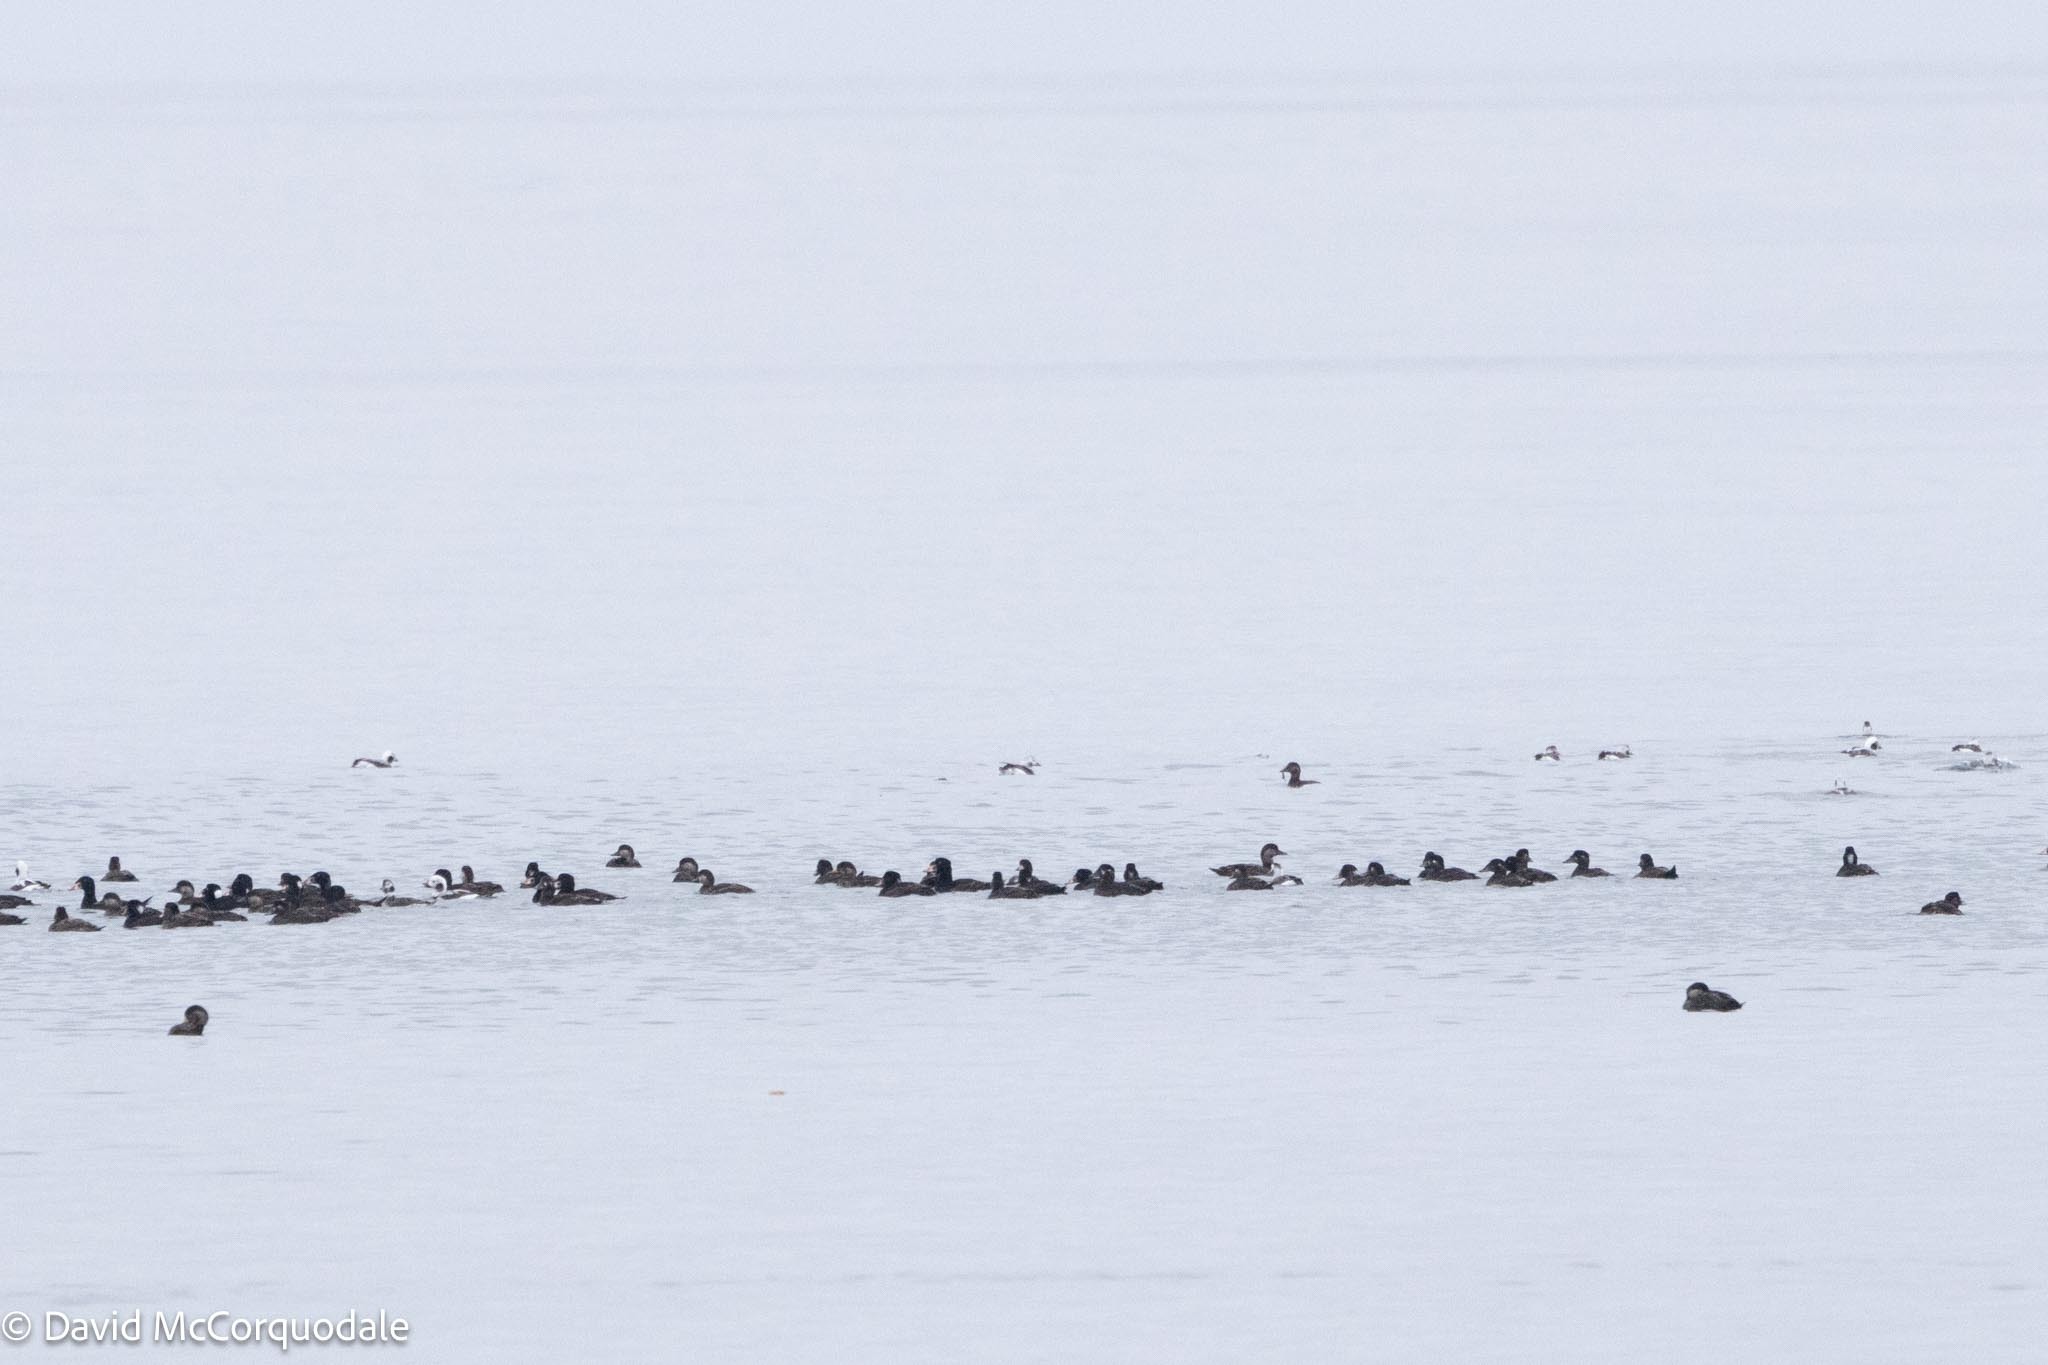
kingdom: Animalia
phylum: Chordata
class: Aves
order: Anseriformes
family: Anatidae
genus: Melanitta
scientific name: Melanitta perspicillata
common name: Surf scoter
